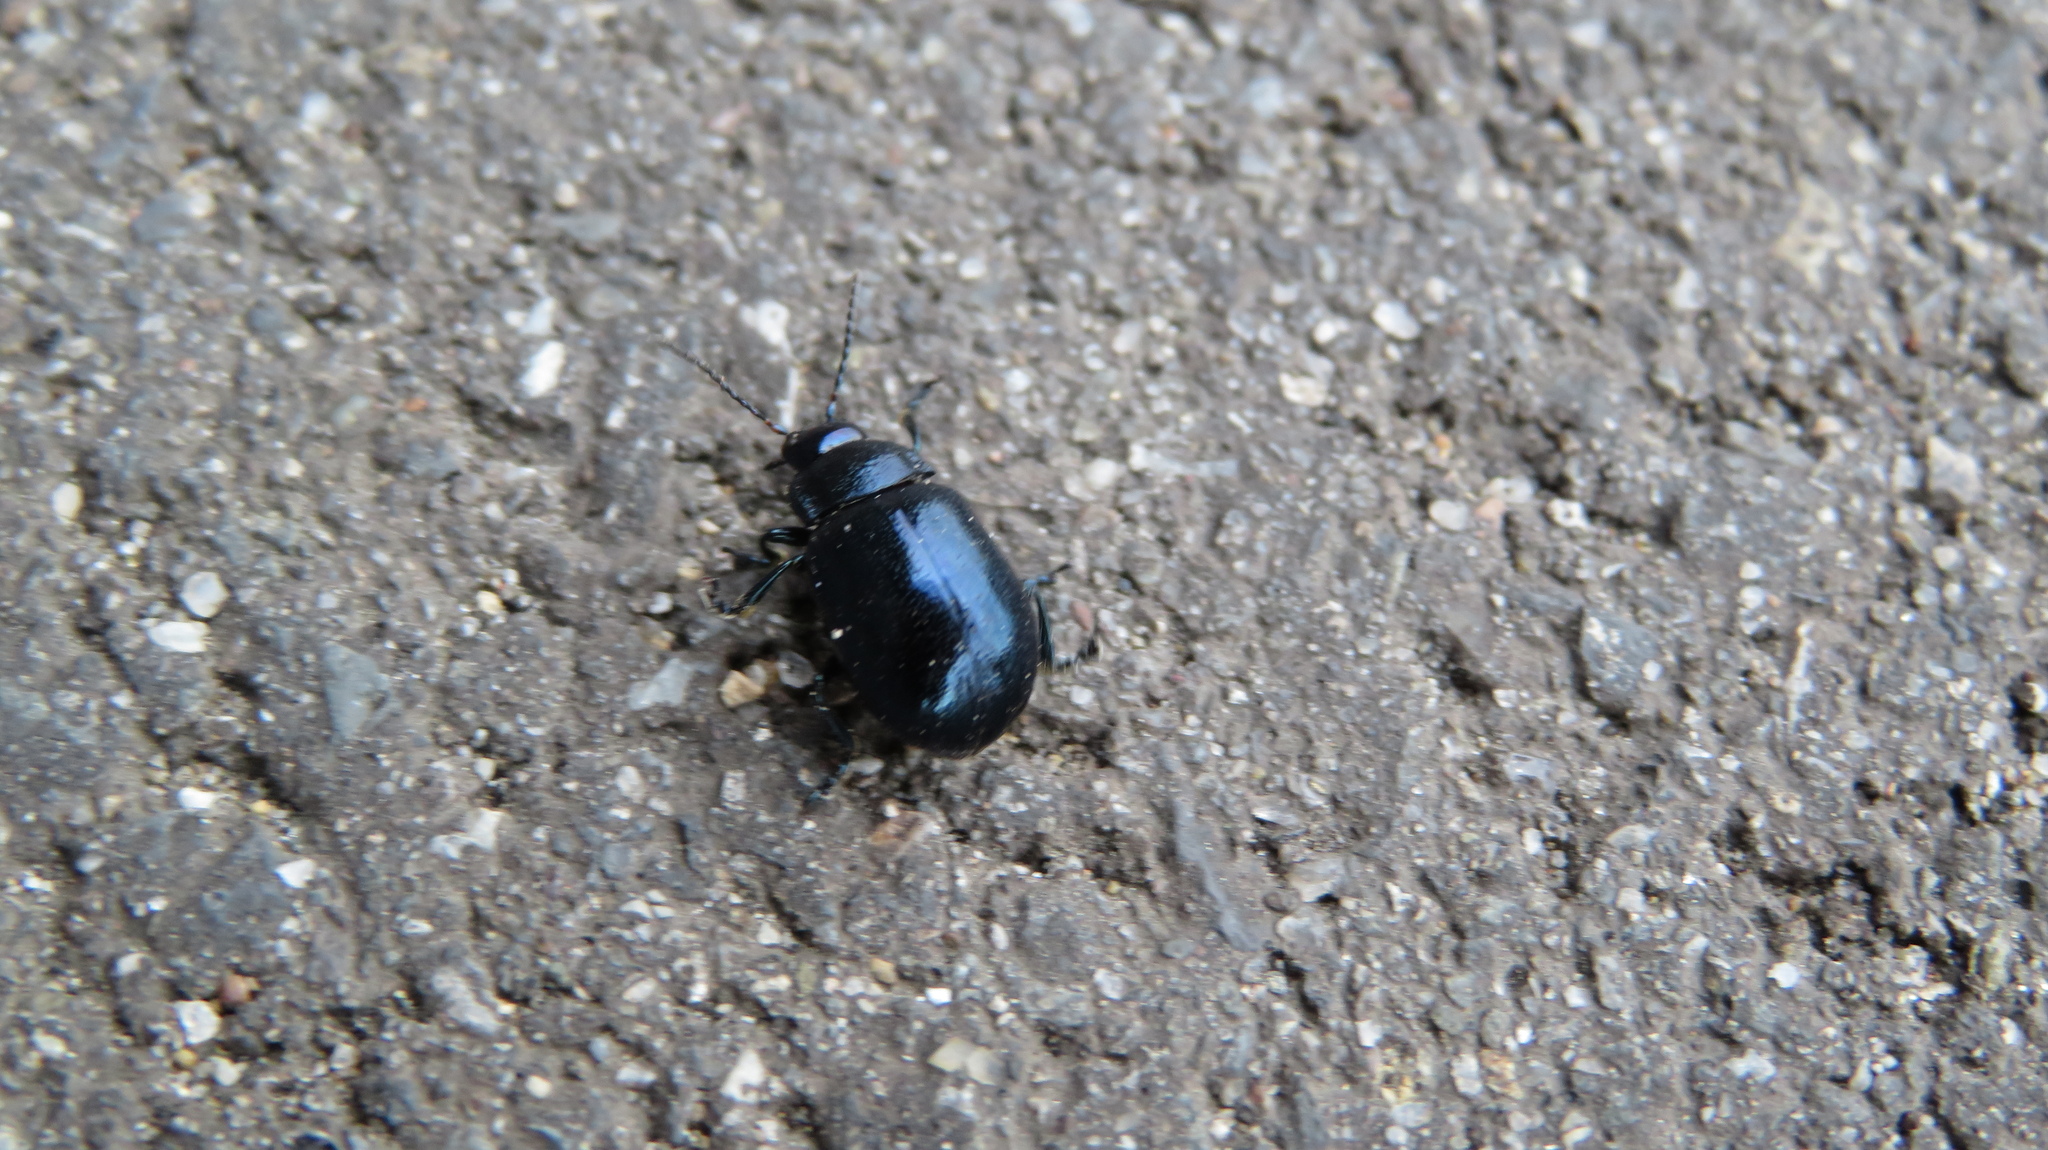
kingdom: Animalia
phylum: Arthropoda
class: Insecta
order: Coleoptera
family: Chrysomelidae
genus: Chrysolina
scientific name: Chrysolina aurichalcea
